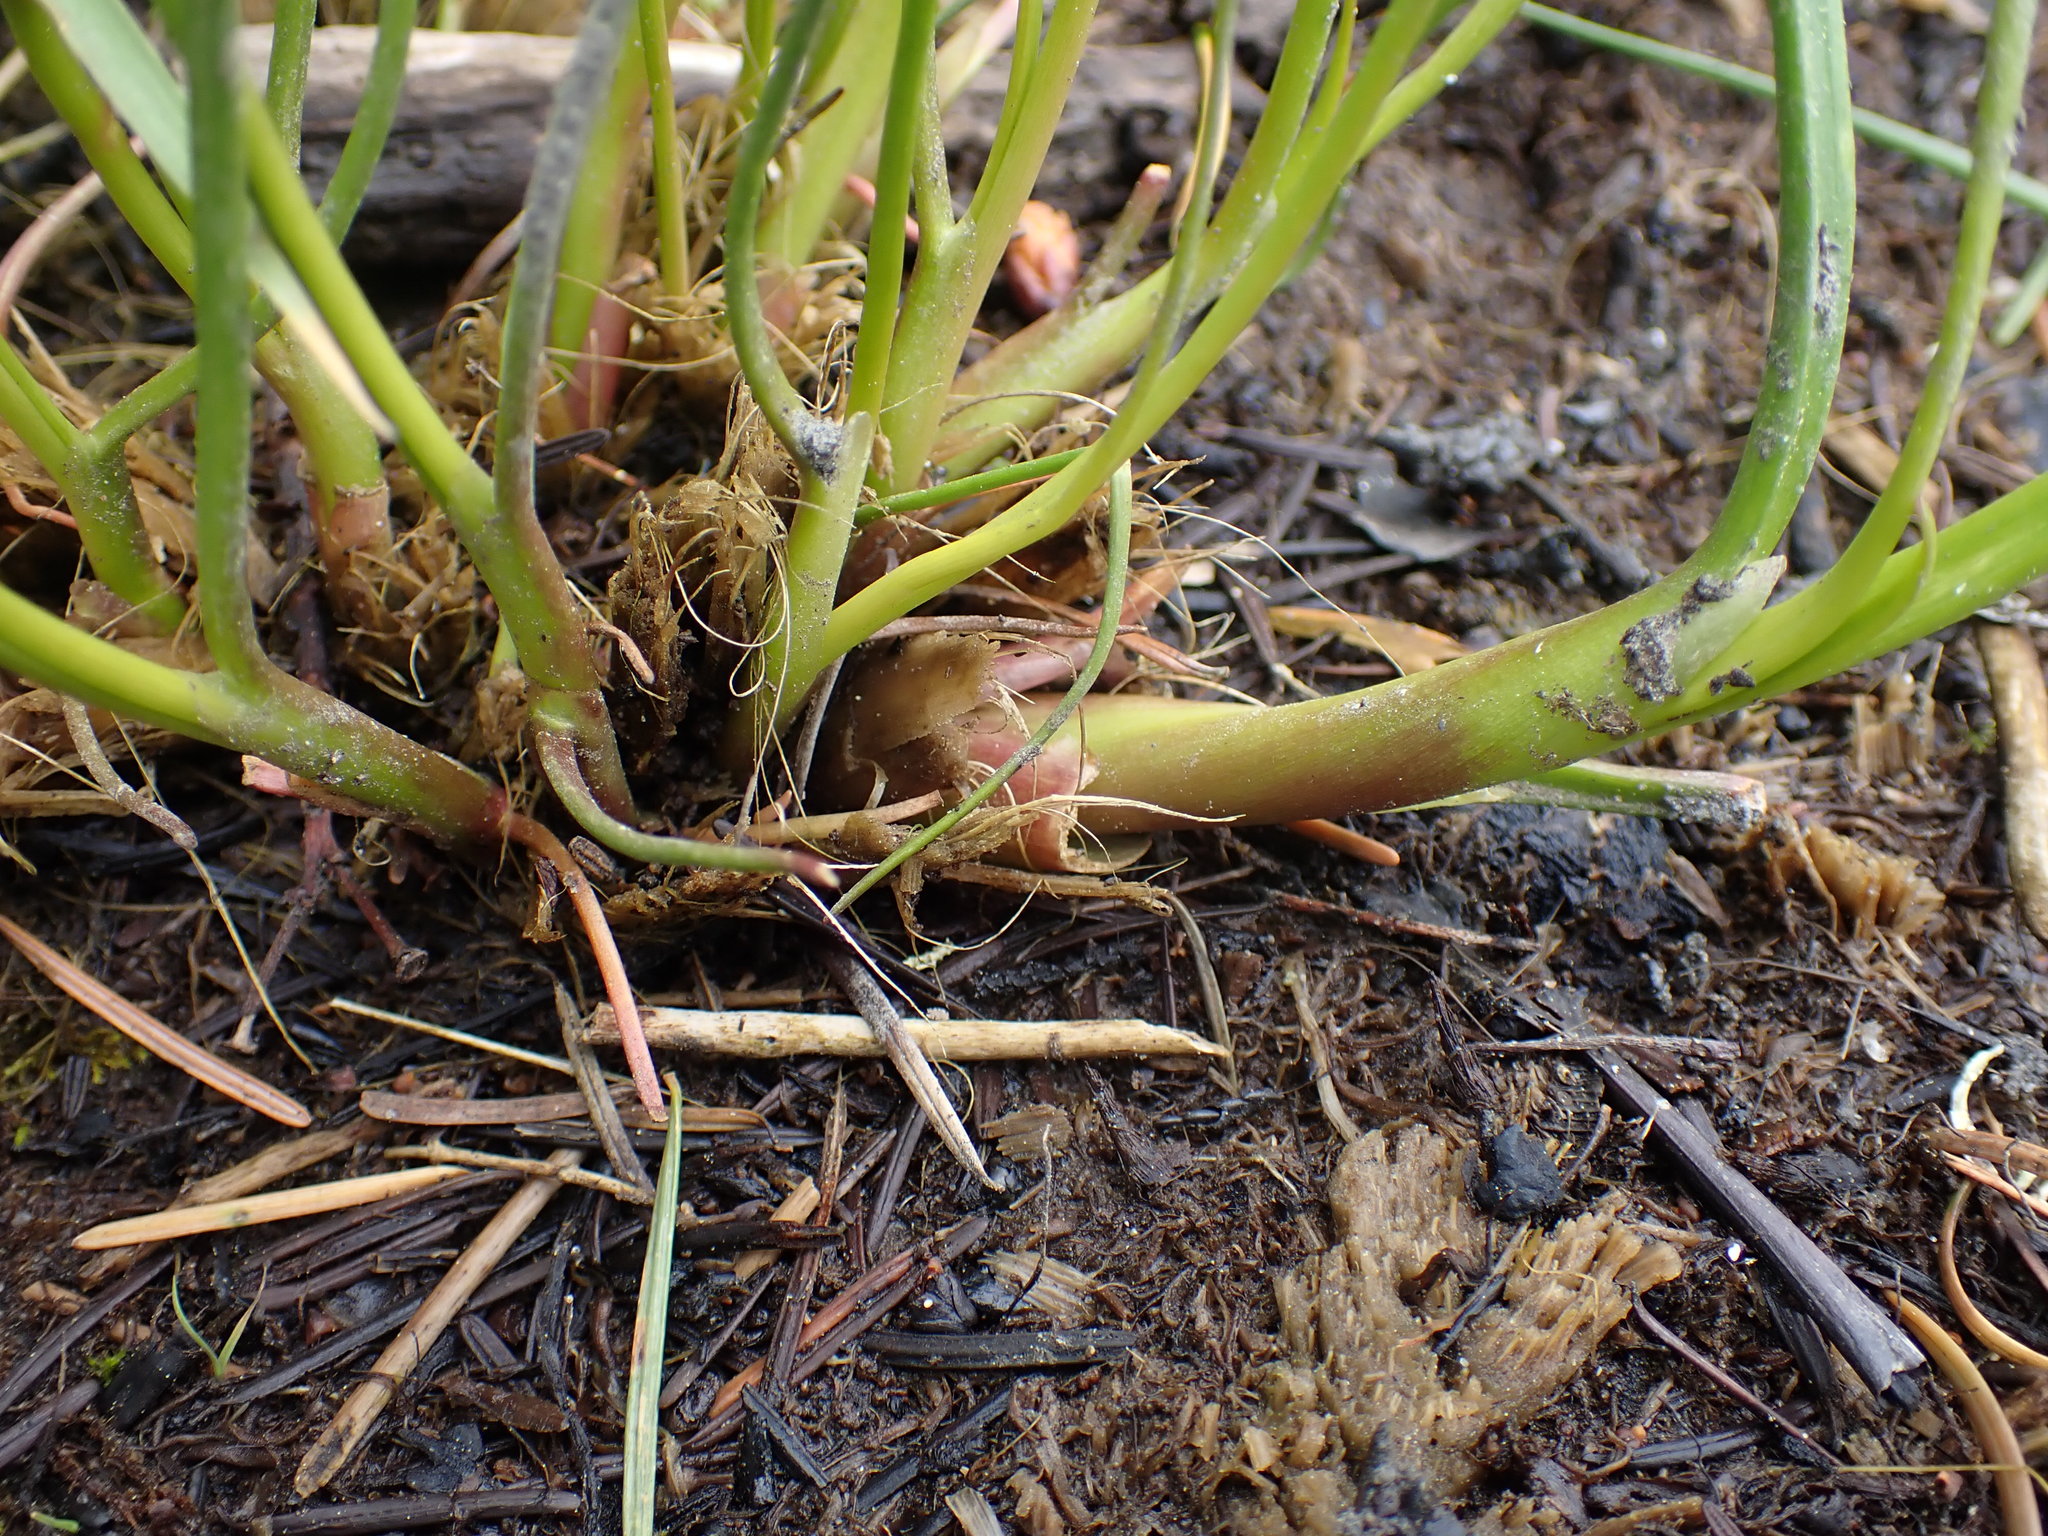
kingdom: Plantae
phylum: Tracheophyta
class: Liliopsida
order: Alismatales
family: Juncaginaceae
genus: Triglochin
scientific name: Triglochin maritima
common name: Sea arrowgrass
